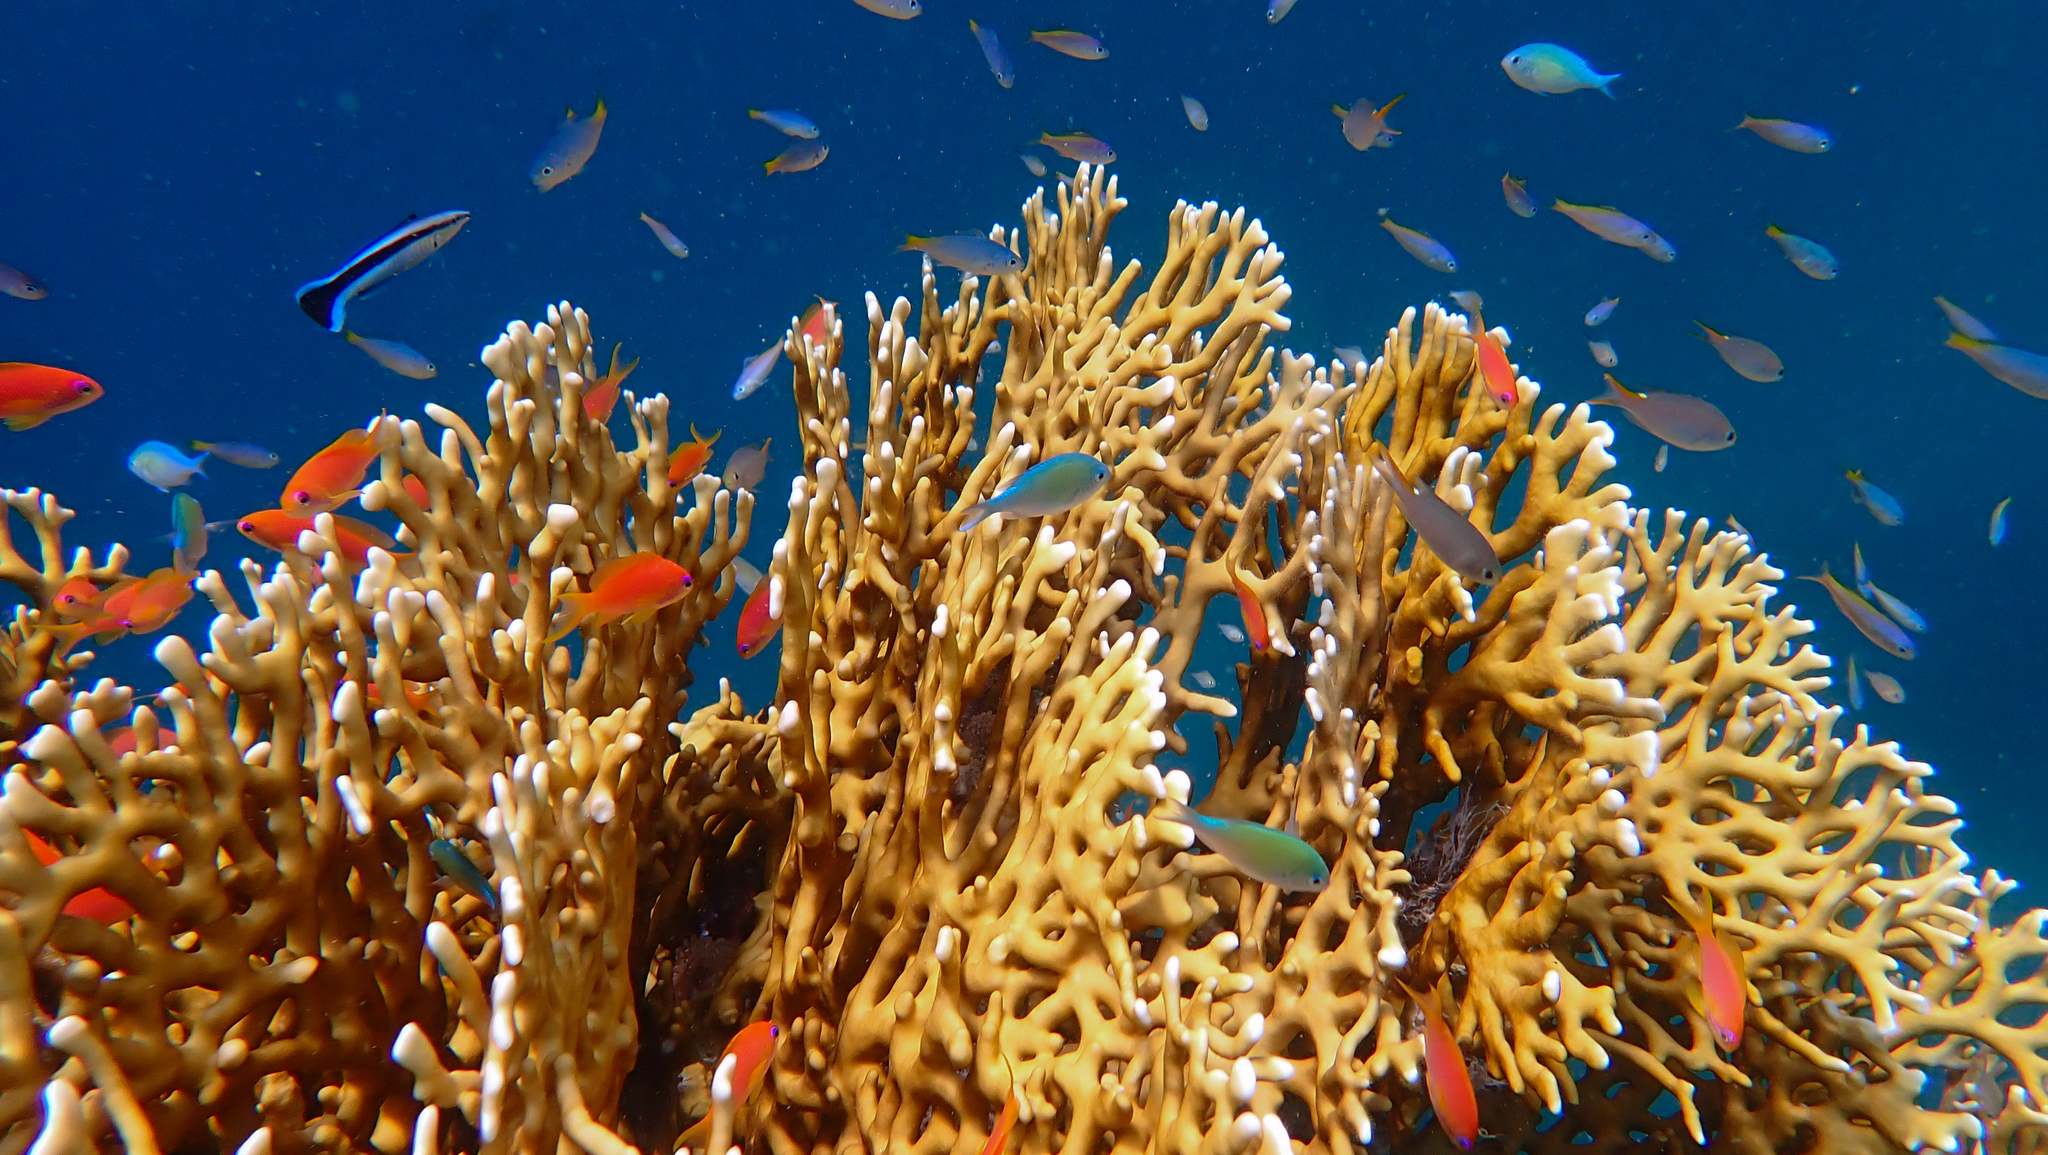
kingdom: Animalia
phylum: Chordata
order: Perciformes
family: Serranidae
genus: Pseudanthias
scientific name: Pseudanthias squamipinnis
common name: Scalefin anthias
